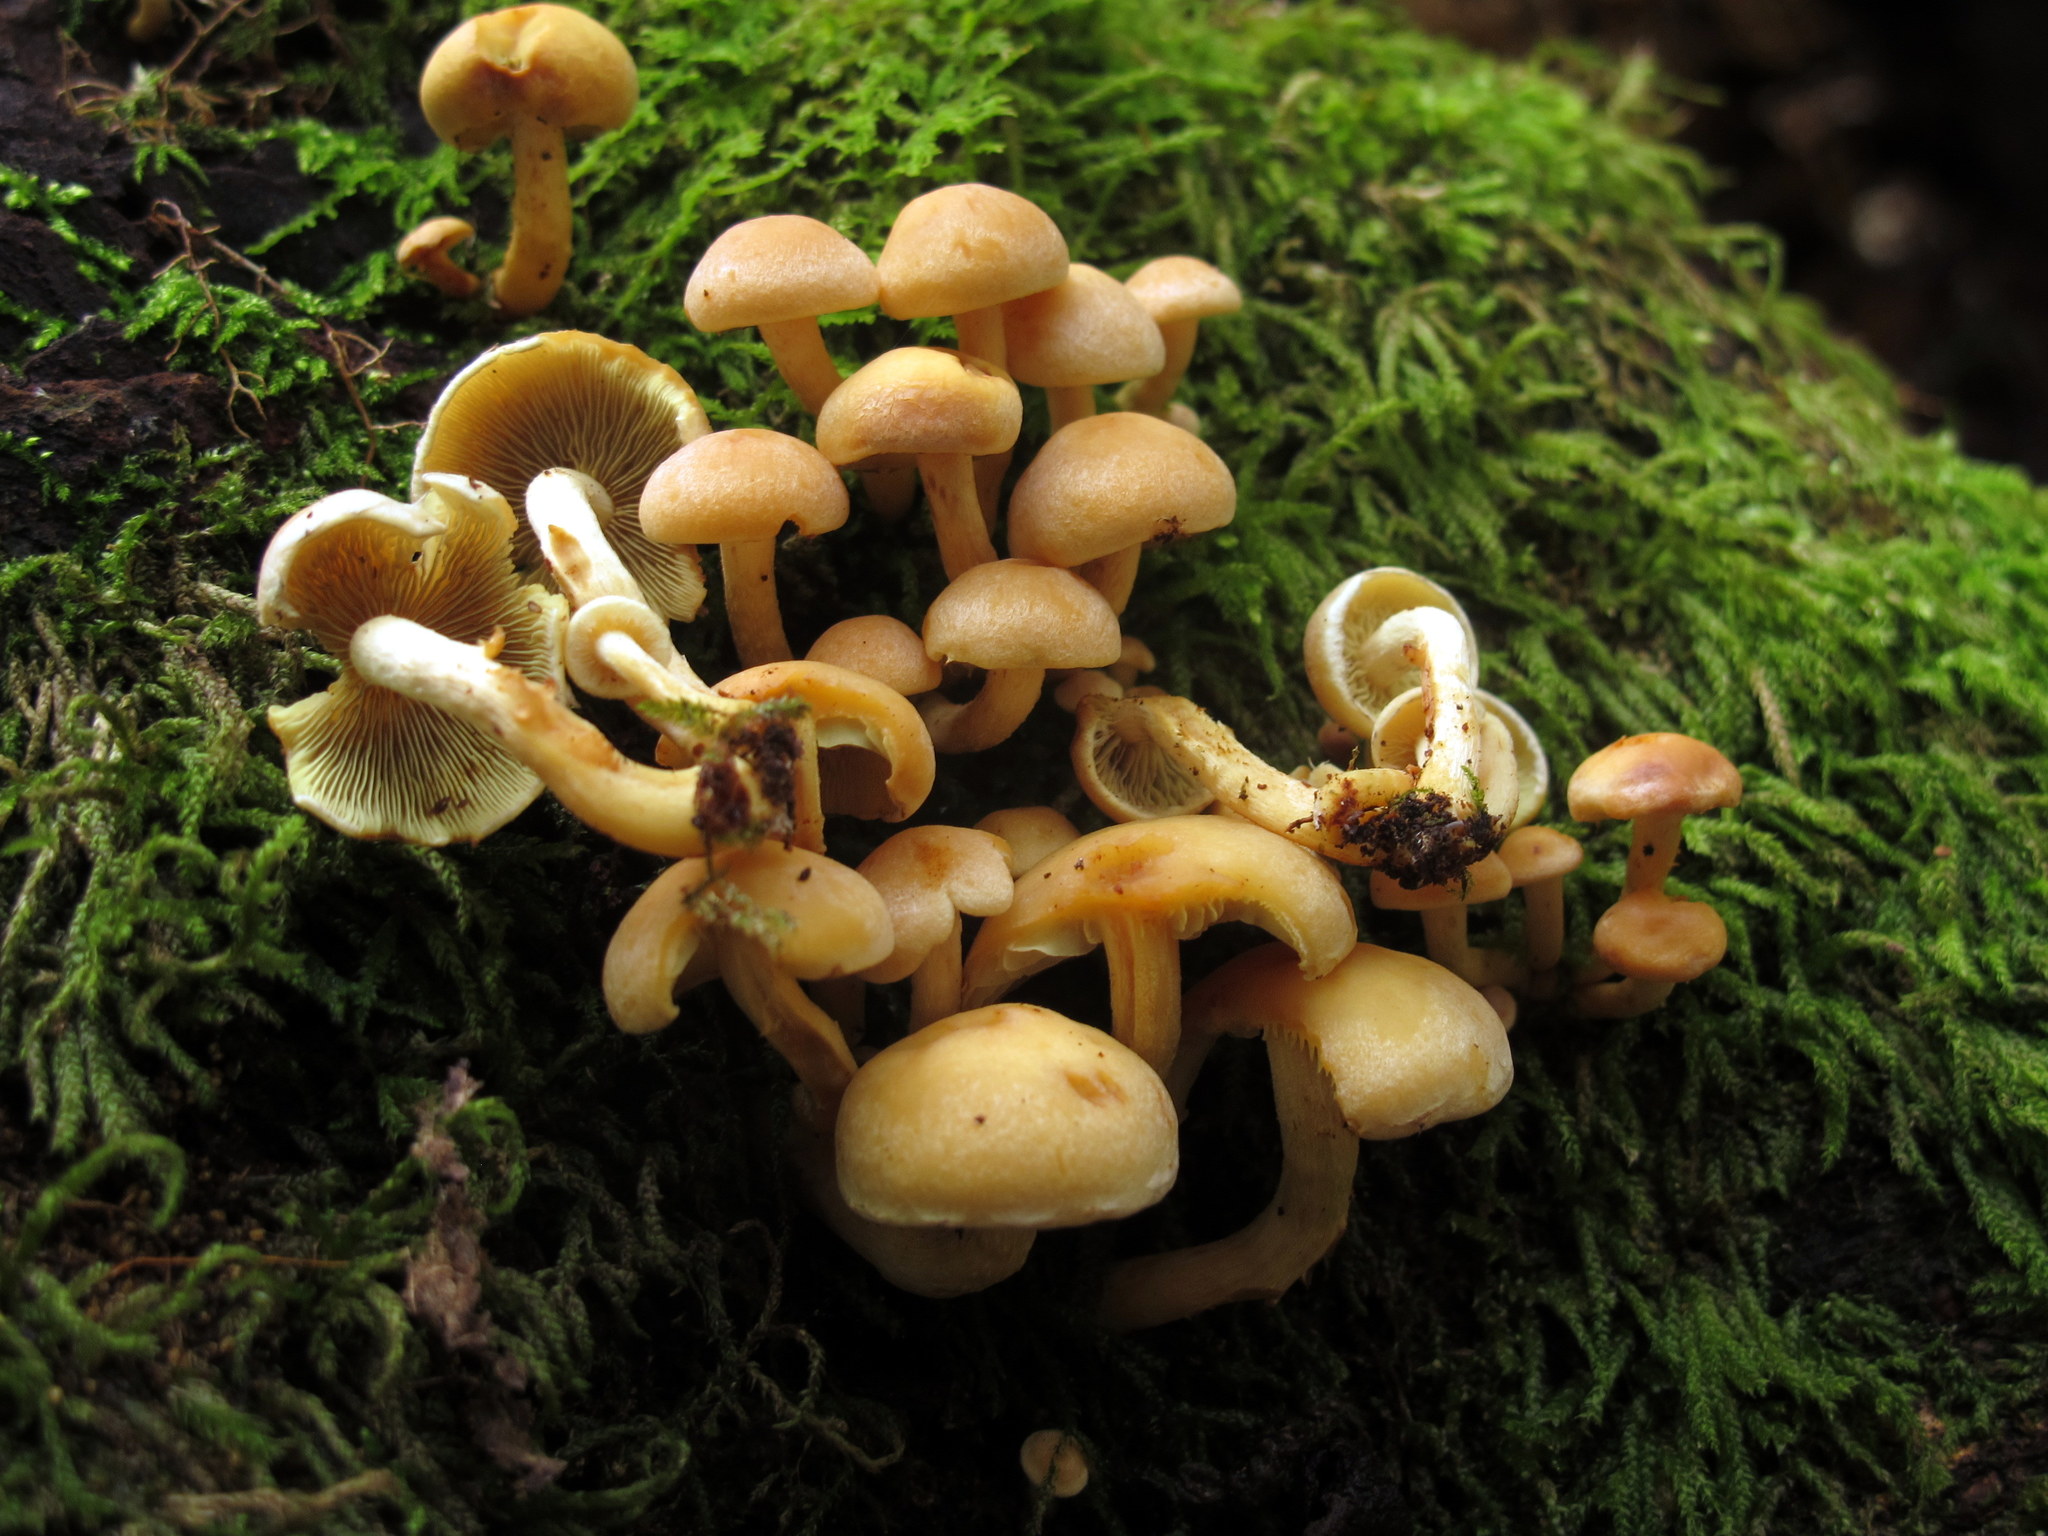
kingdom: Fungi
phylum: Basidiomycota
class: Agaricomycetes
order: Agaricales
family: Strophariaceae
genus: Hypholoma
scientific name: Hypholoma fasciculare
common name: Sulphur tuft
